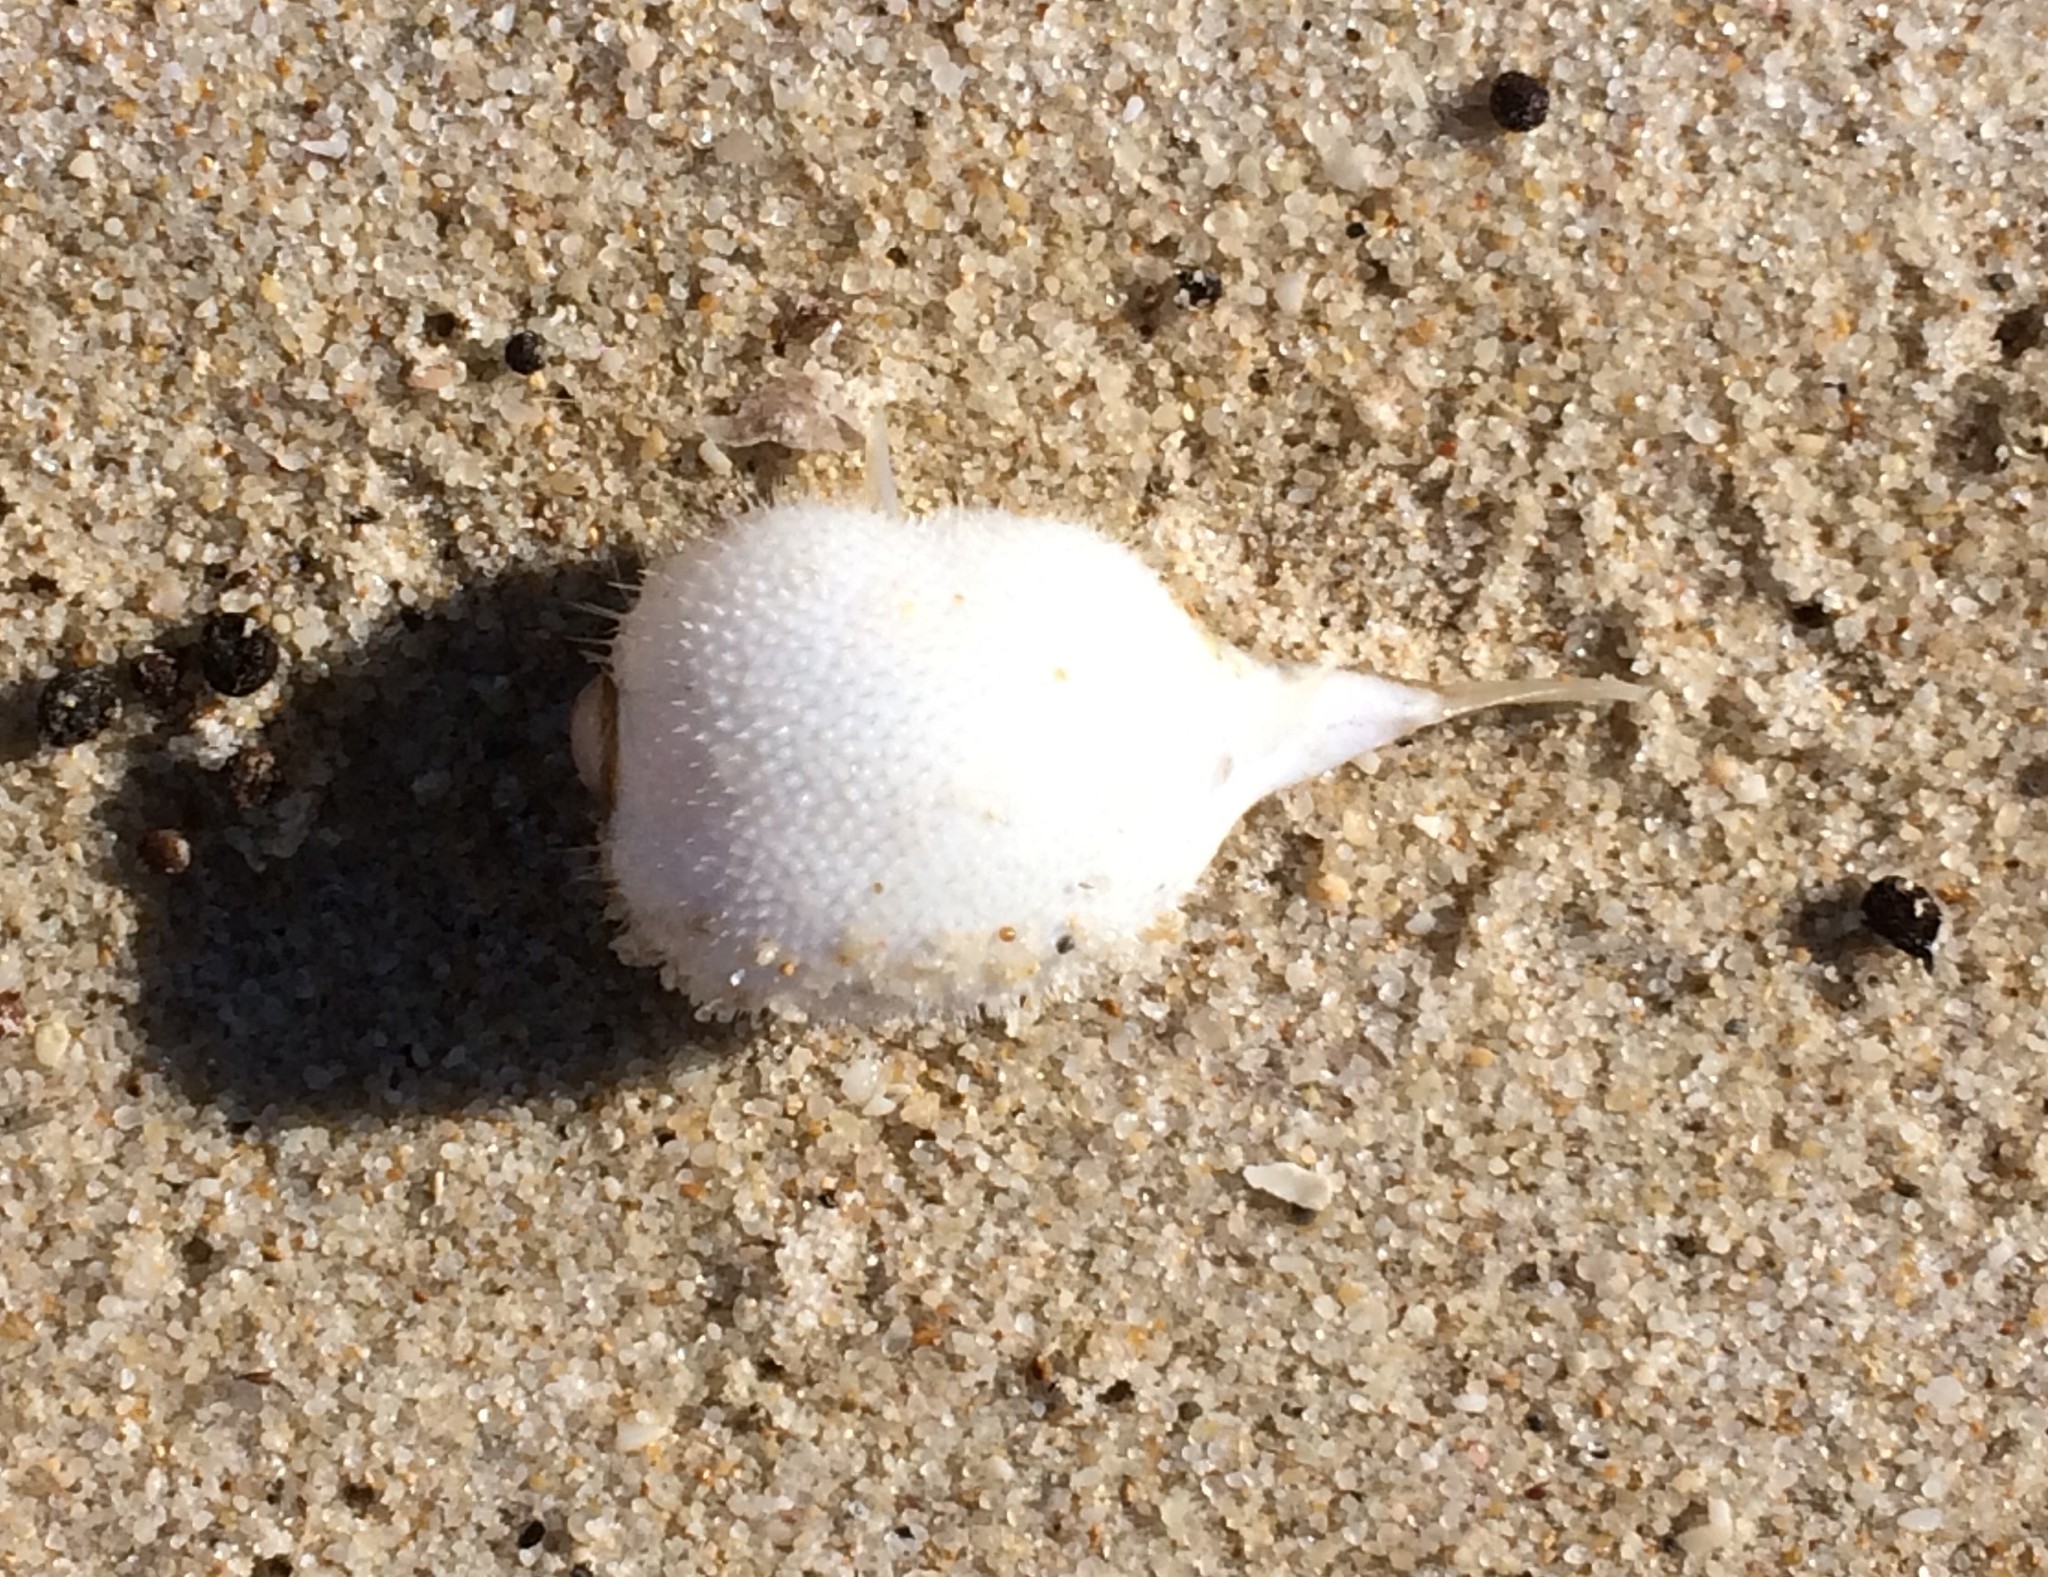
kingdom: Animalia
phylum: Chordata
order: Tetraodontiformes
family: Tetraodontidae
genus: Polyspina
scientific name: Polyspina piosae
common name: Orange-barred pufferfish
